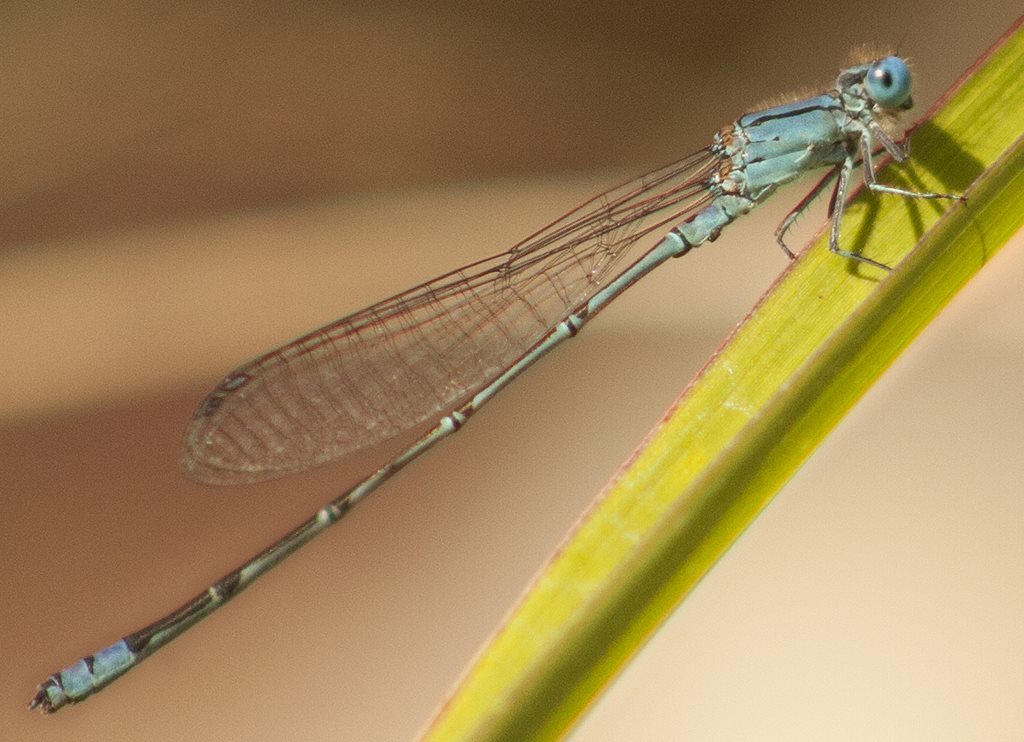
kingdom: Animalia
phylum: Arthropoda
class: Insecta
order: Odonata
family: Coenagrionidae
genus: Pseudagrion
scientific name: Pseudagrion microcephalum
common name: Blue riverdamsel
